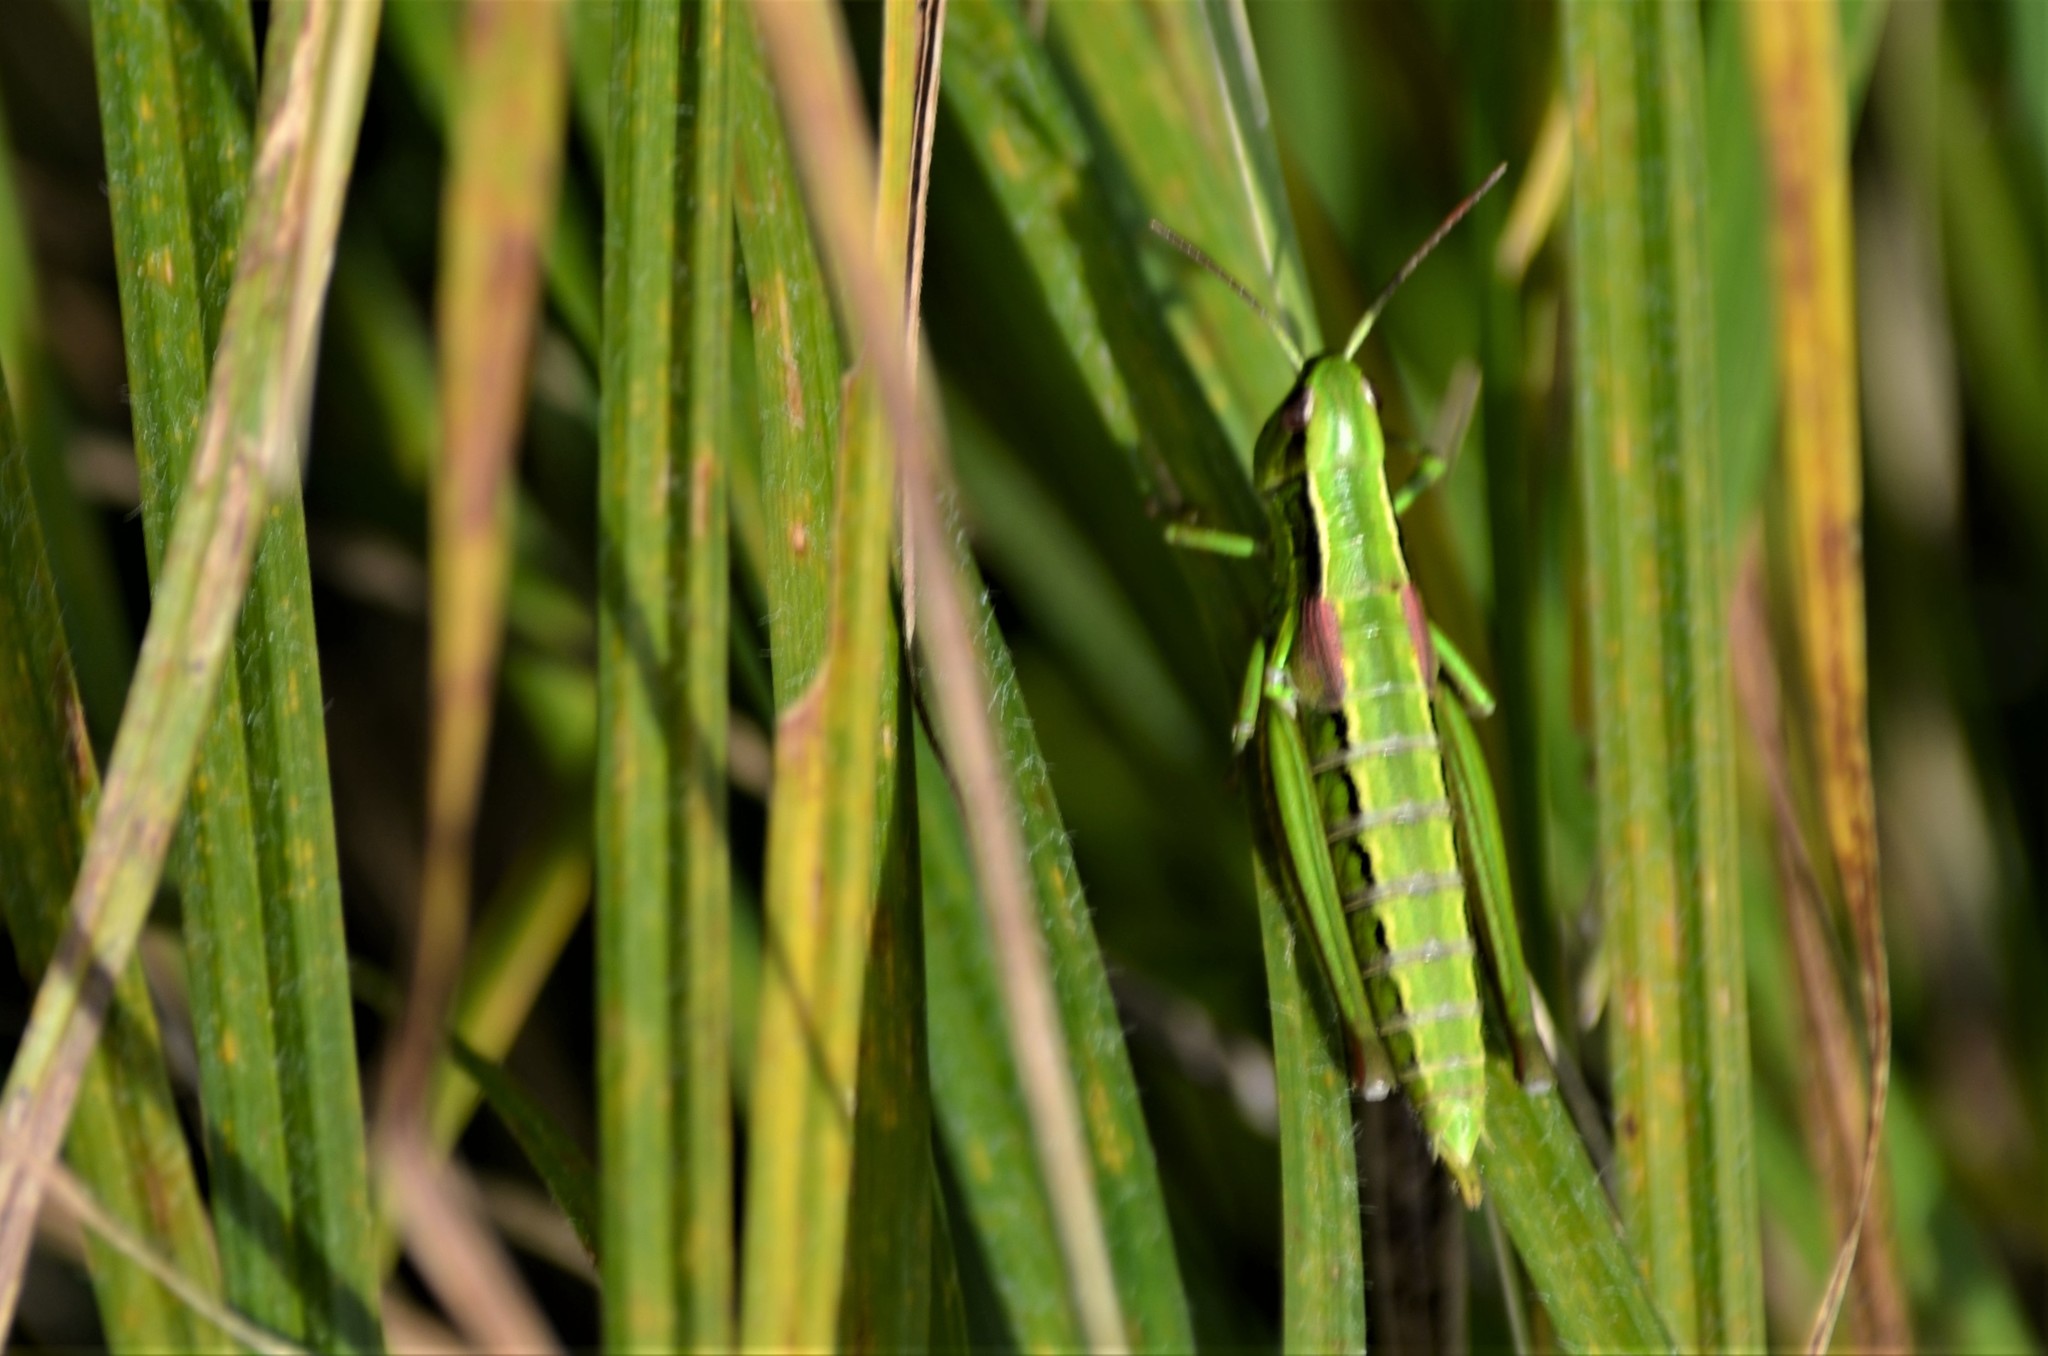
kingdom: Animalia
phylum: Arthropoda
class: Insecta
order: Orthoptera
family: Acrididae
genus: Euthystira
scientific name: Euthystira brachyptera
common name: Small gold grasshopper
